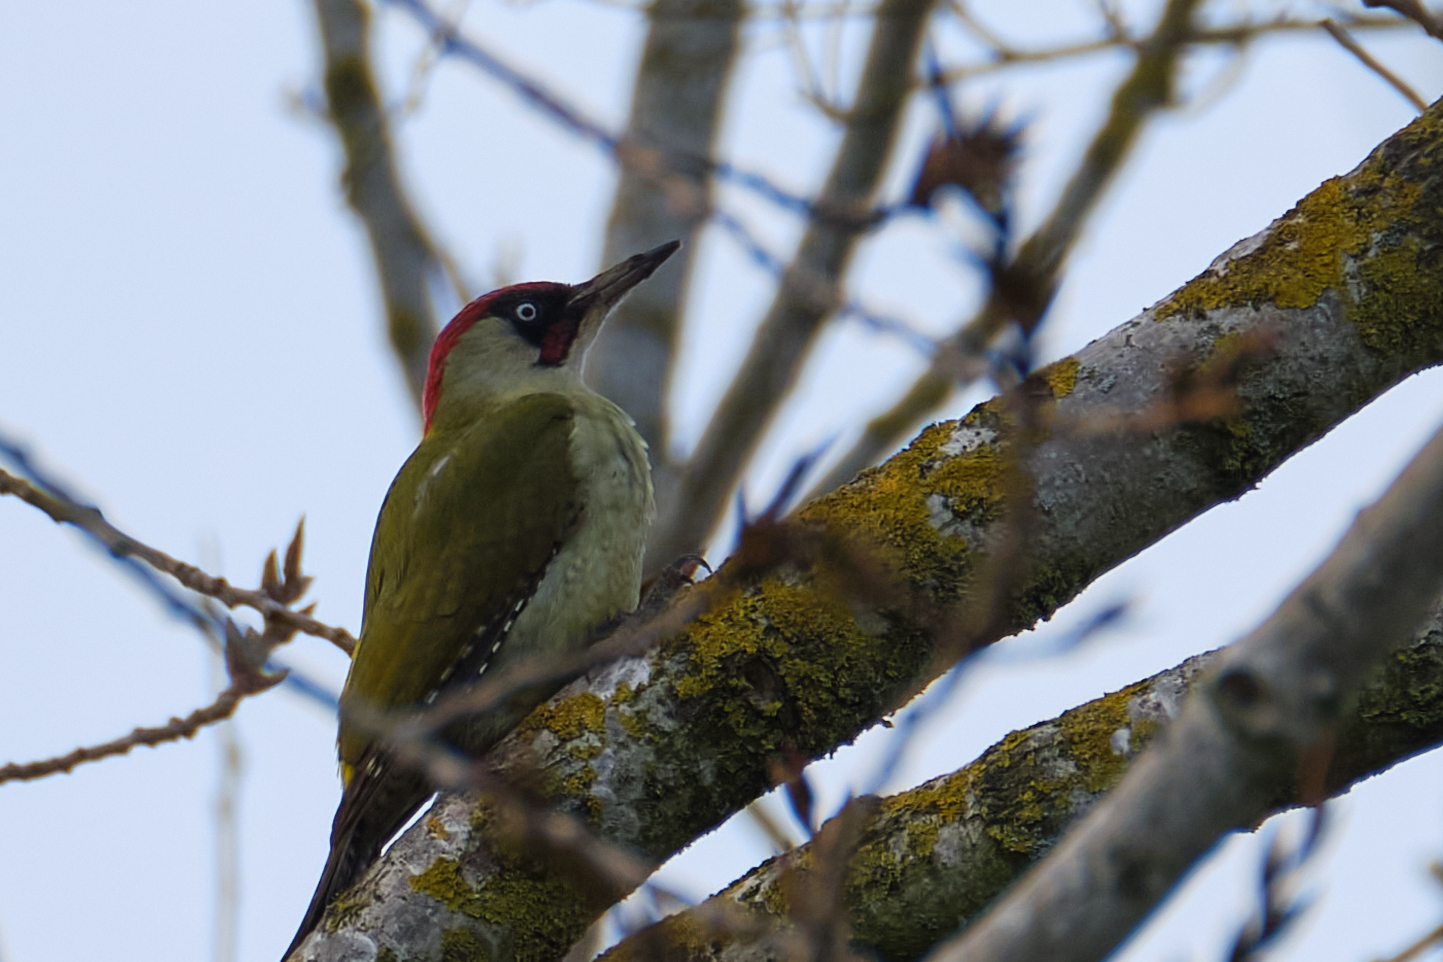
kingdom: Animalia
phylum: Chordata
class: Aves
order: Piciformes
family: Picidae
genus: Picus
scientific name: Picus viridis
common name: European green woodpecker
